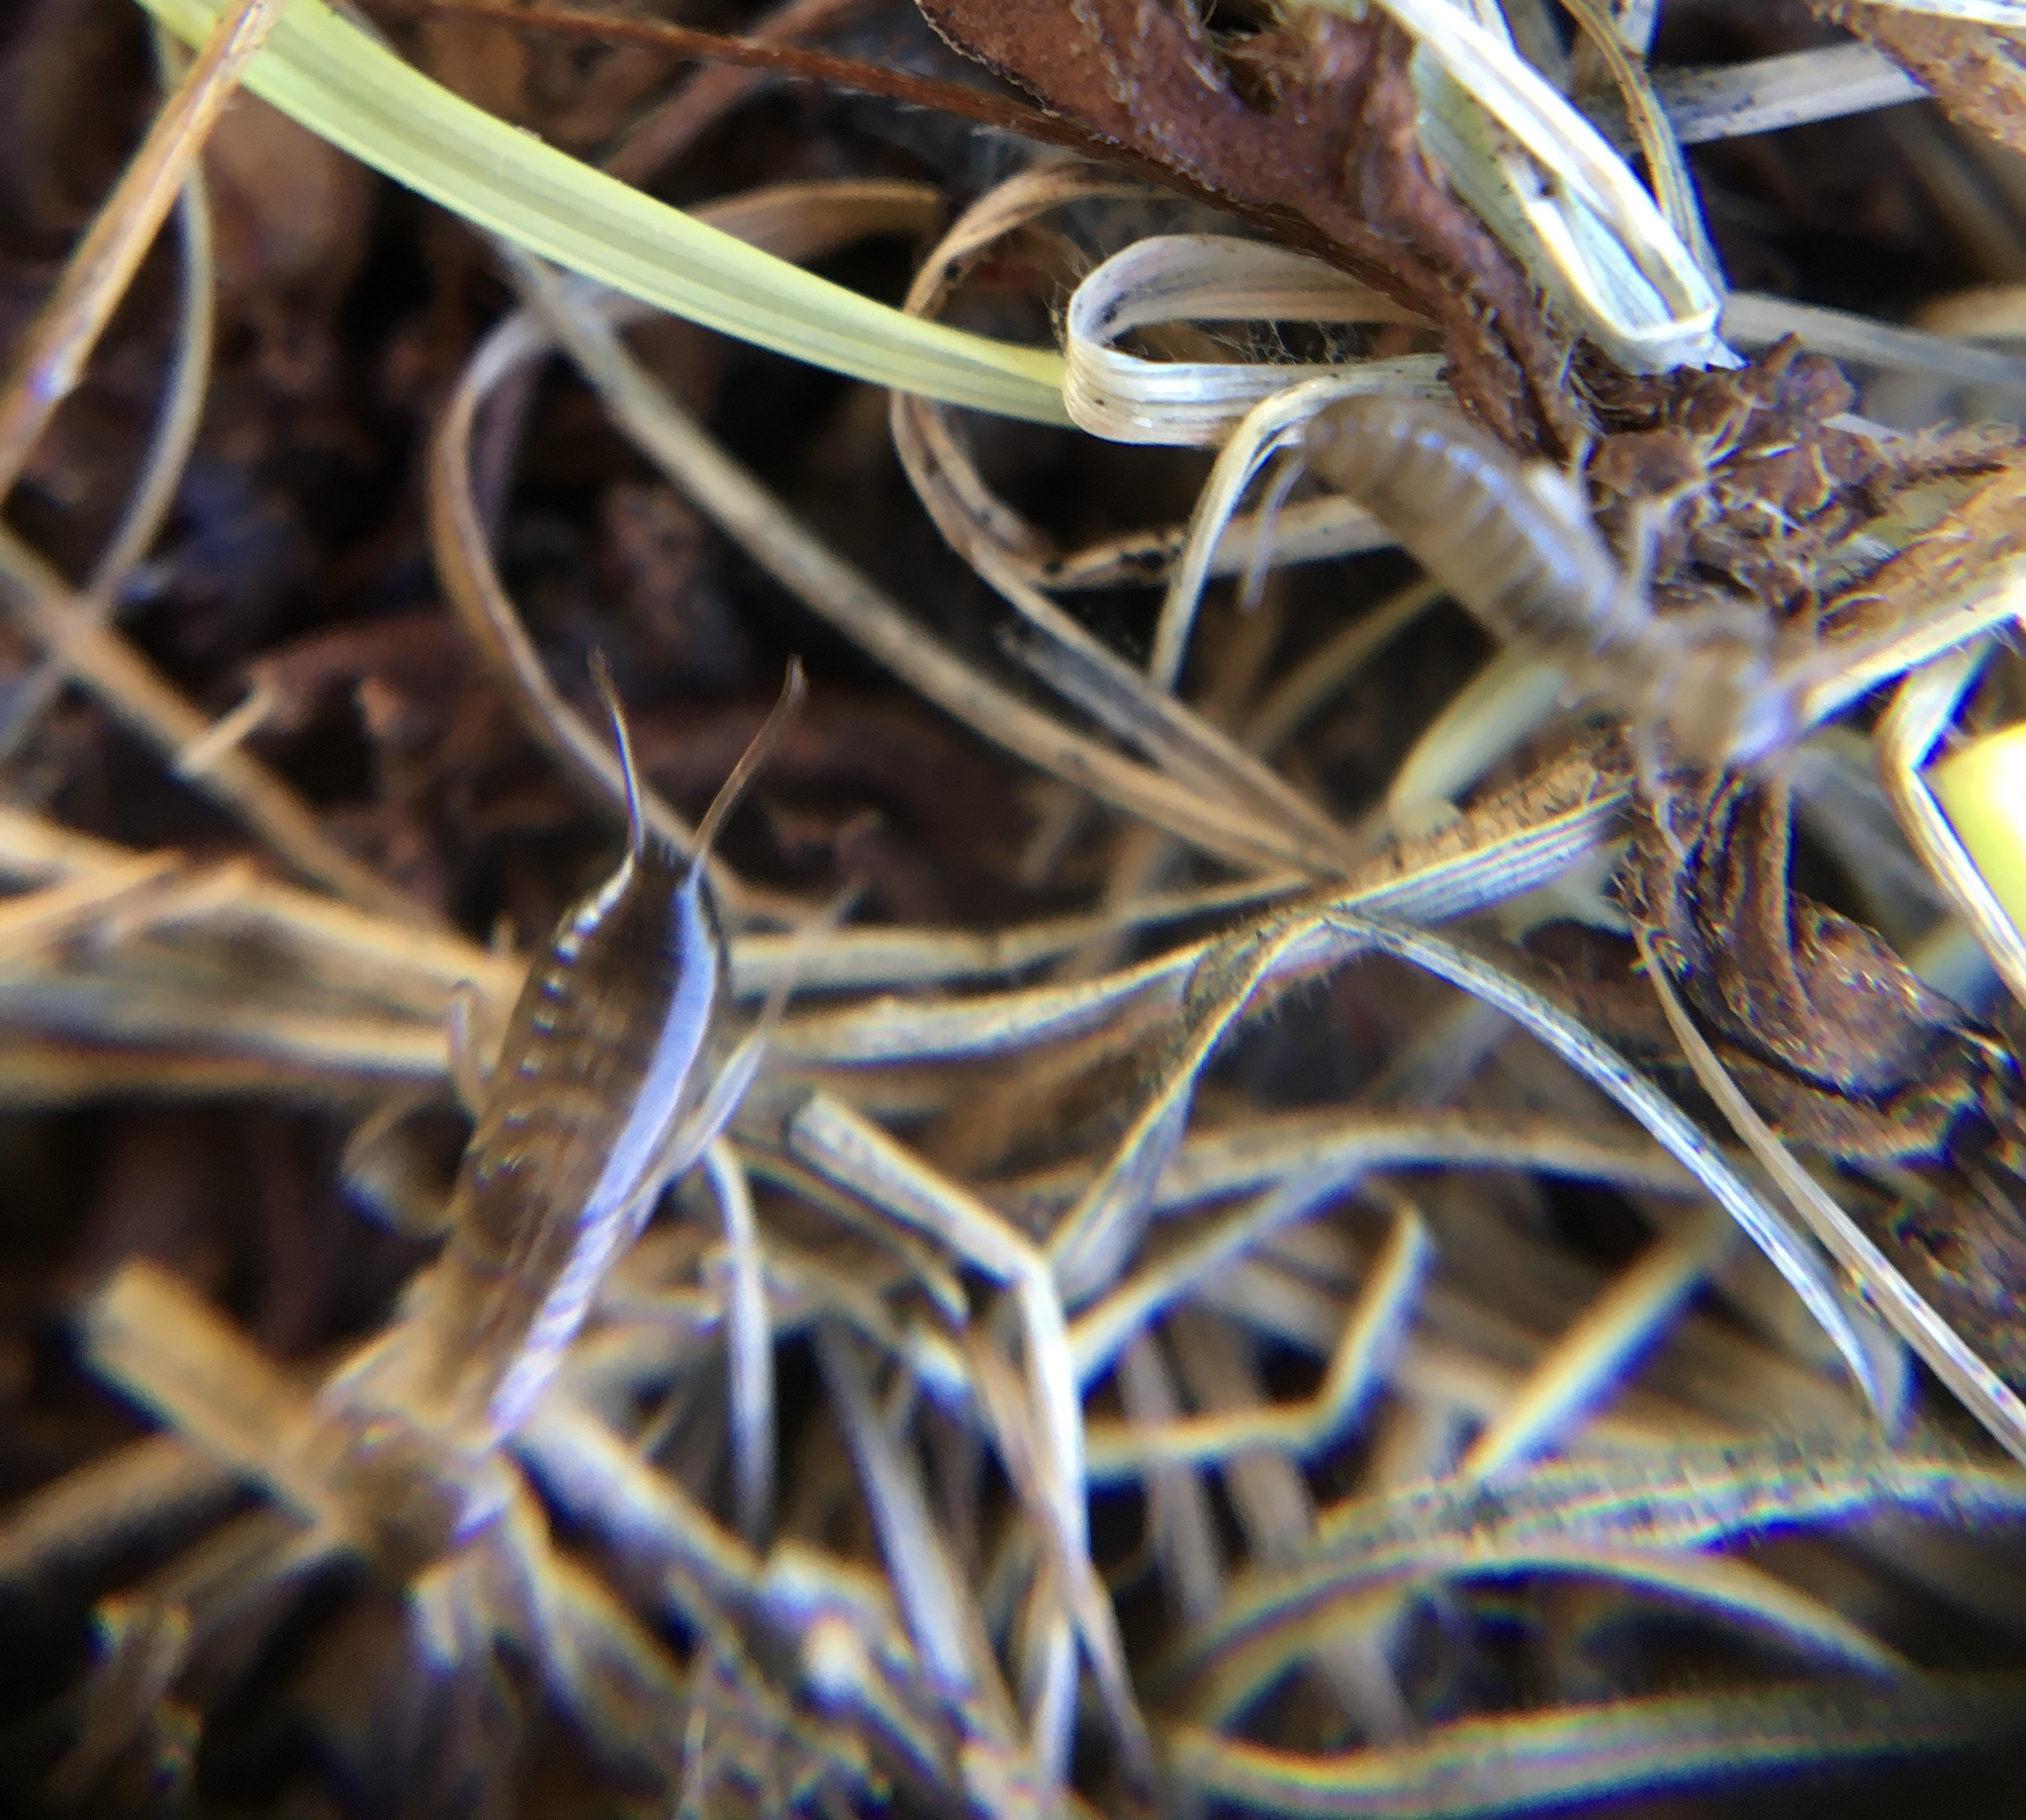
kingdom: Animalia
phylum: Arthropoda
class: Insecta
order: Dermaptera
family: Forficulidae
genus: Forficula
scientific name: Forficula dentata
